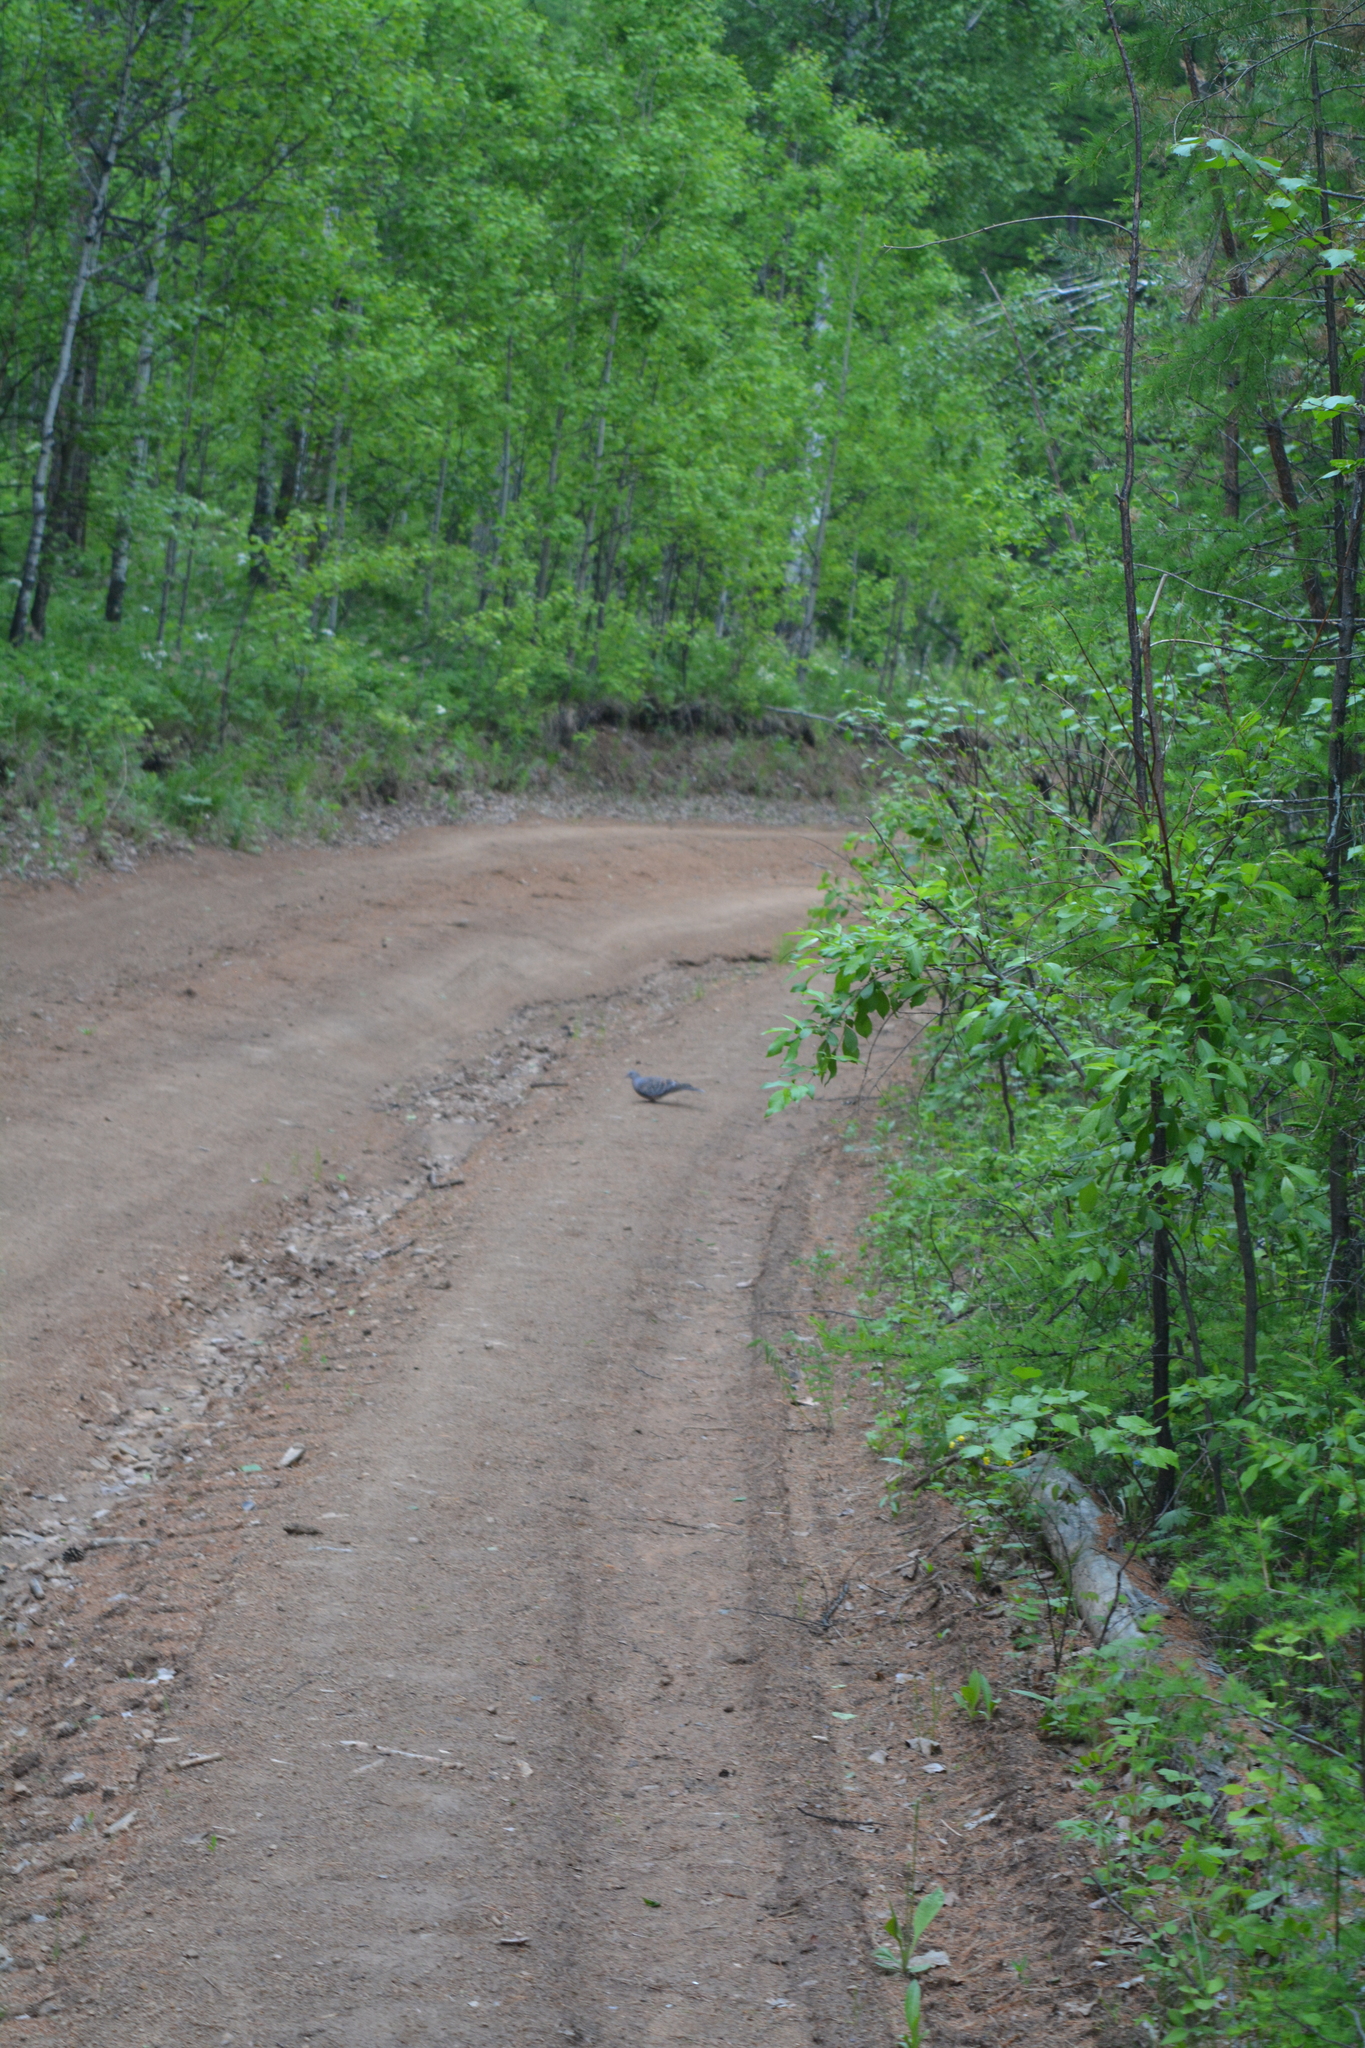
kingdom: Animalia
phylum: Chordata
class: Aves
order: Columbiformes
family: Columbidae
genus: Streptopelia
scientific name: Streptopelia orientalis
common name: Oriental turtle dove
